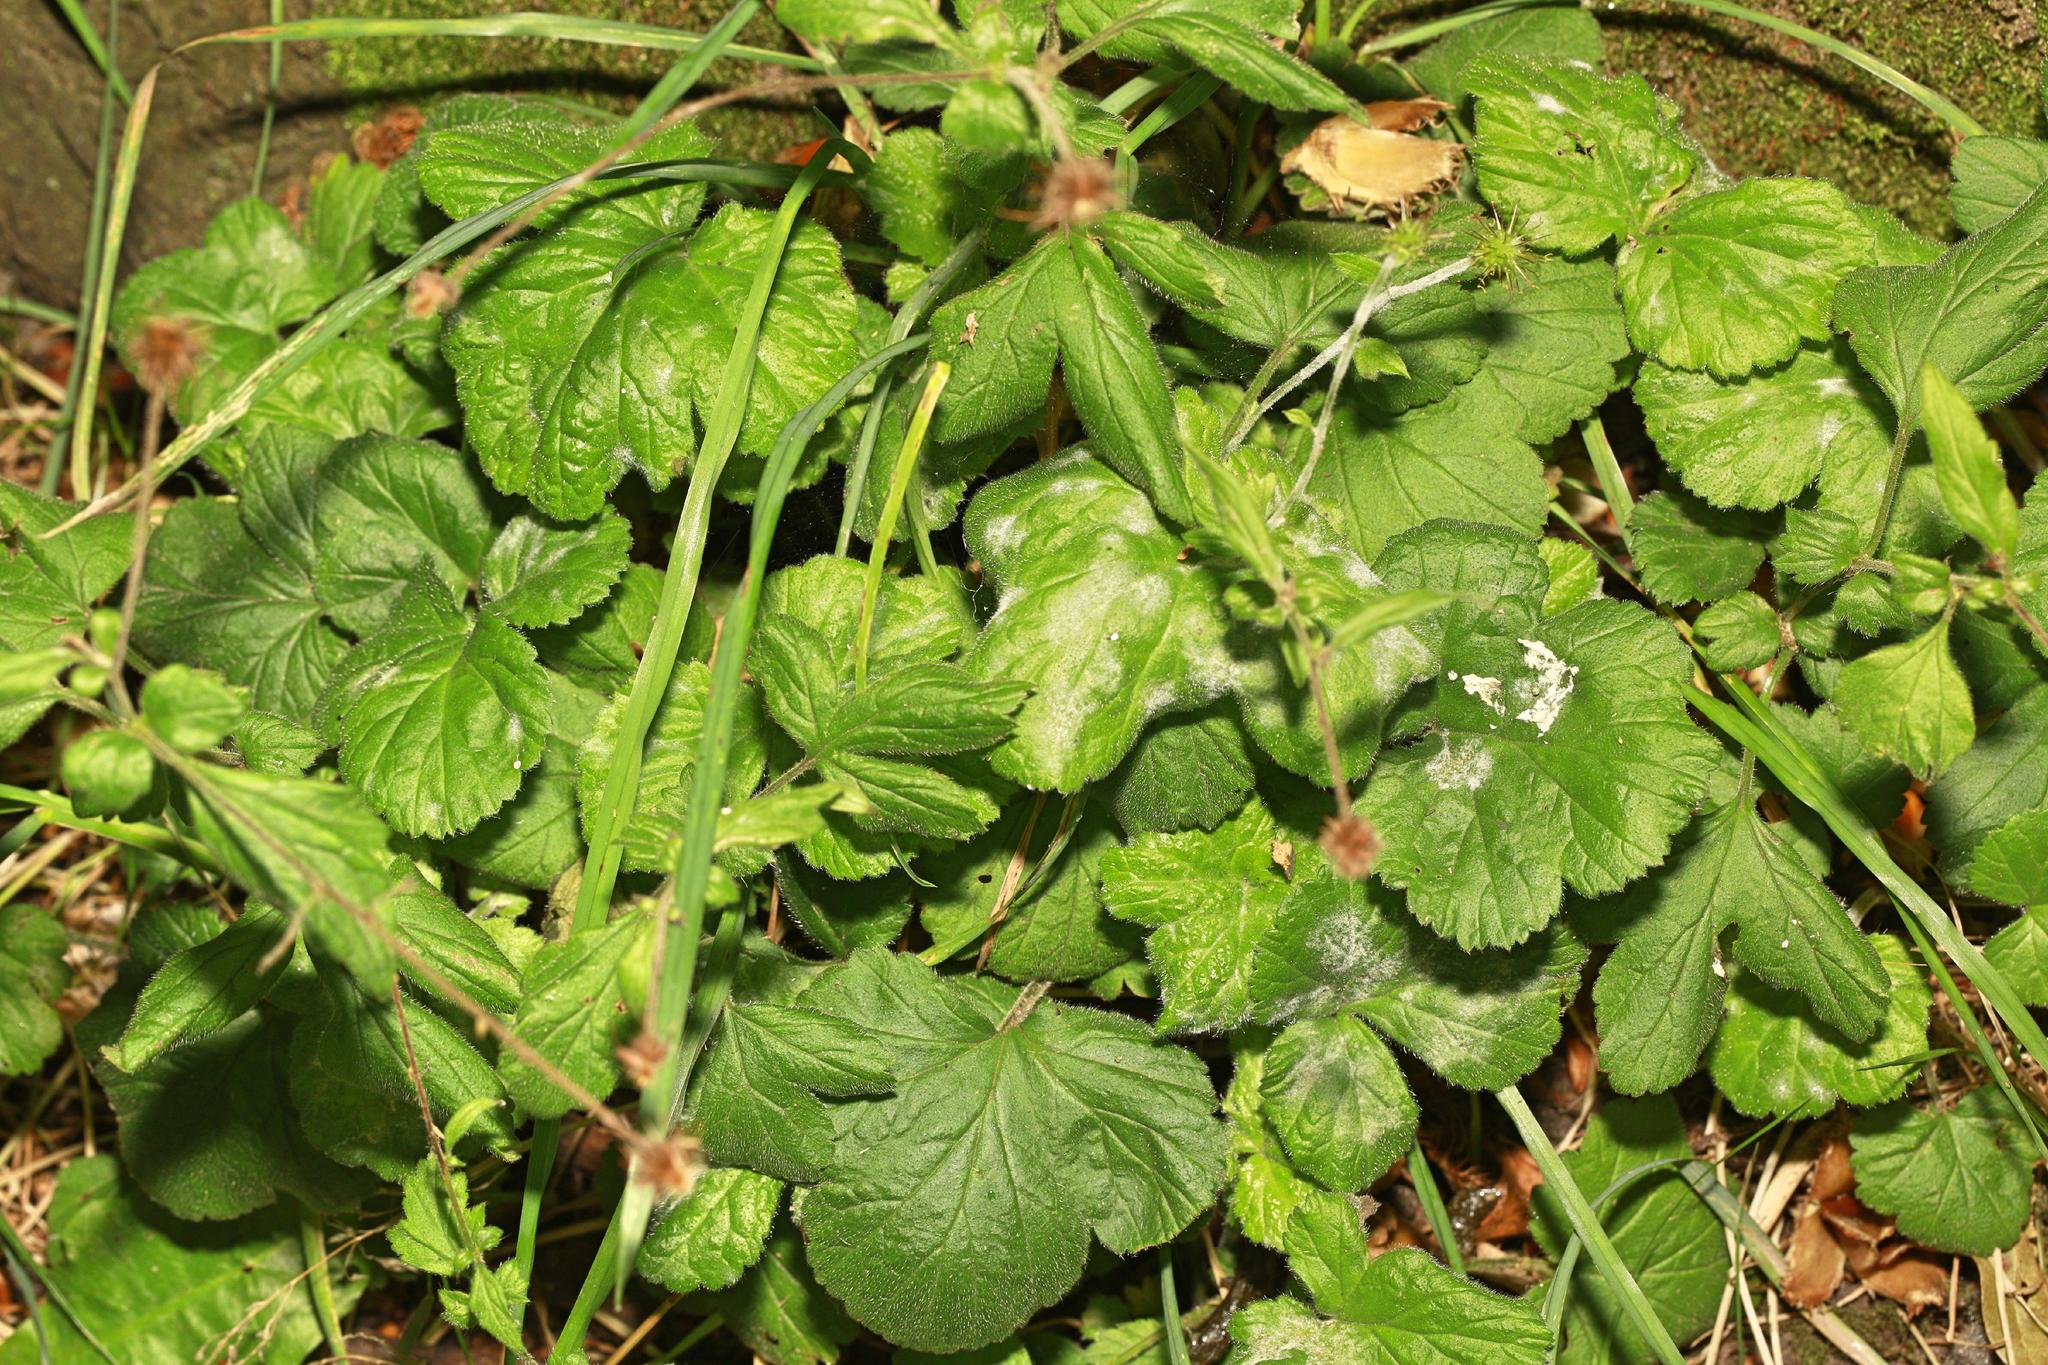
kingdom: Plantae
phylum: Tracheophyta
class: Magnoliopsida
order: Rosales
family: Rosaceae
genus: Geum
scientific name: Geum urbanum
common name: Wood avens
